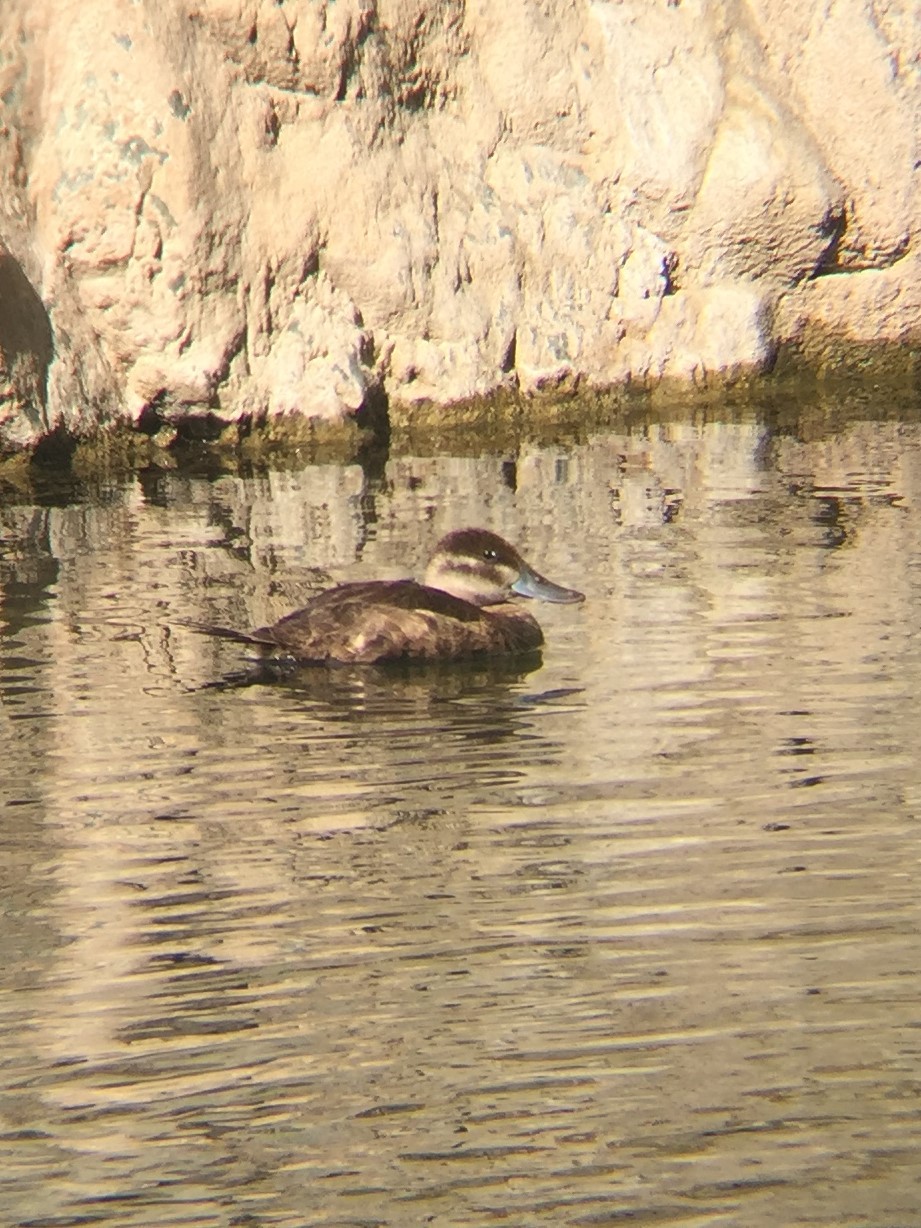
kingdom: Animalia
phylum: Chordata
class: Aves
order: Anseriformes
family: Anatidae
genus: Oxyura
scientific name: Oxyura jamaicensis
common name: Ruddy duck
